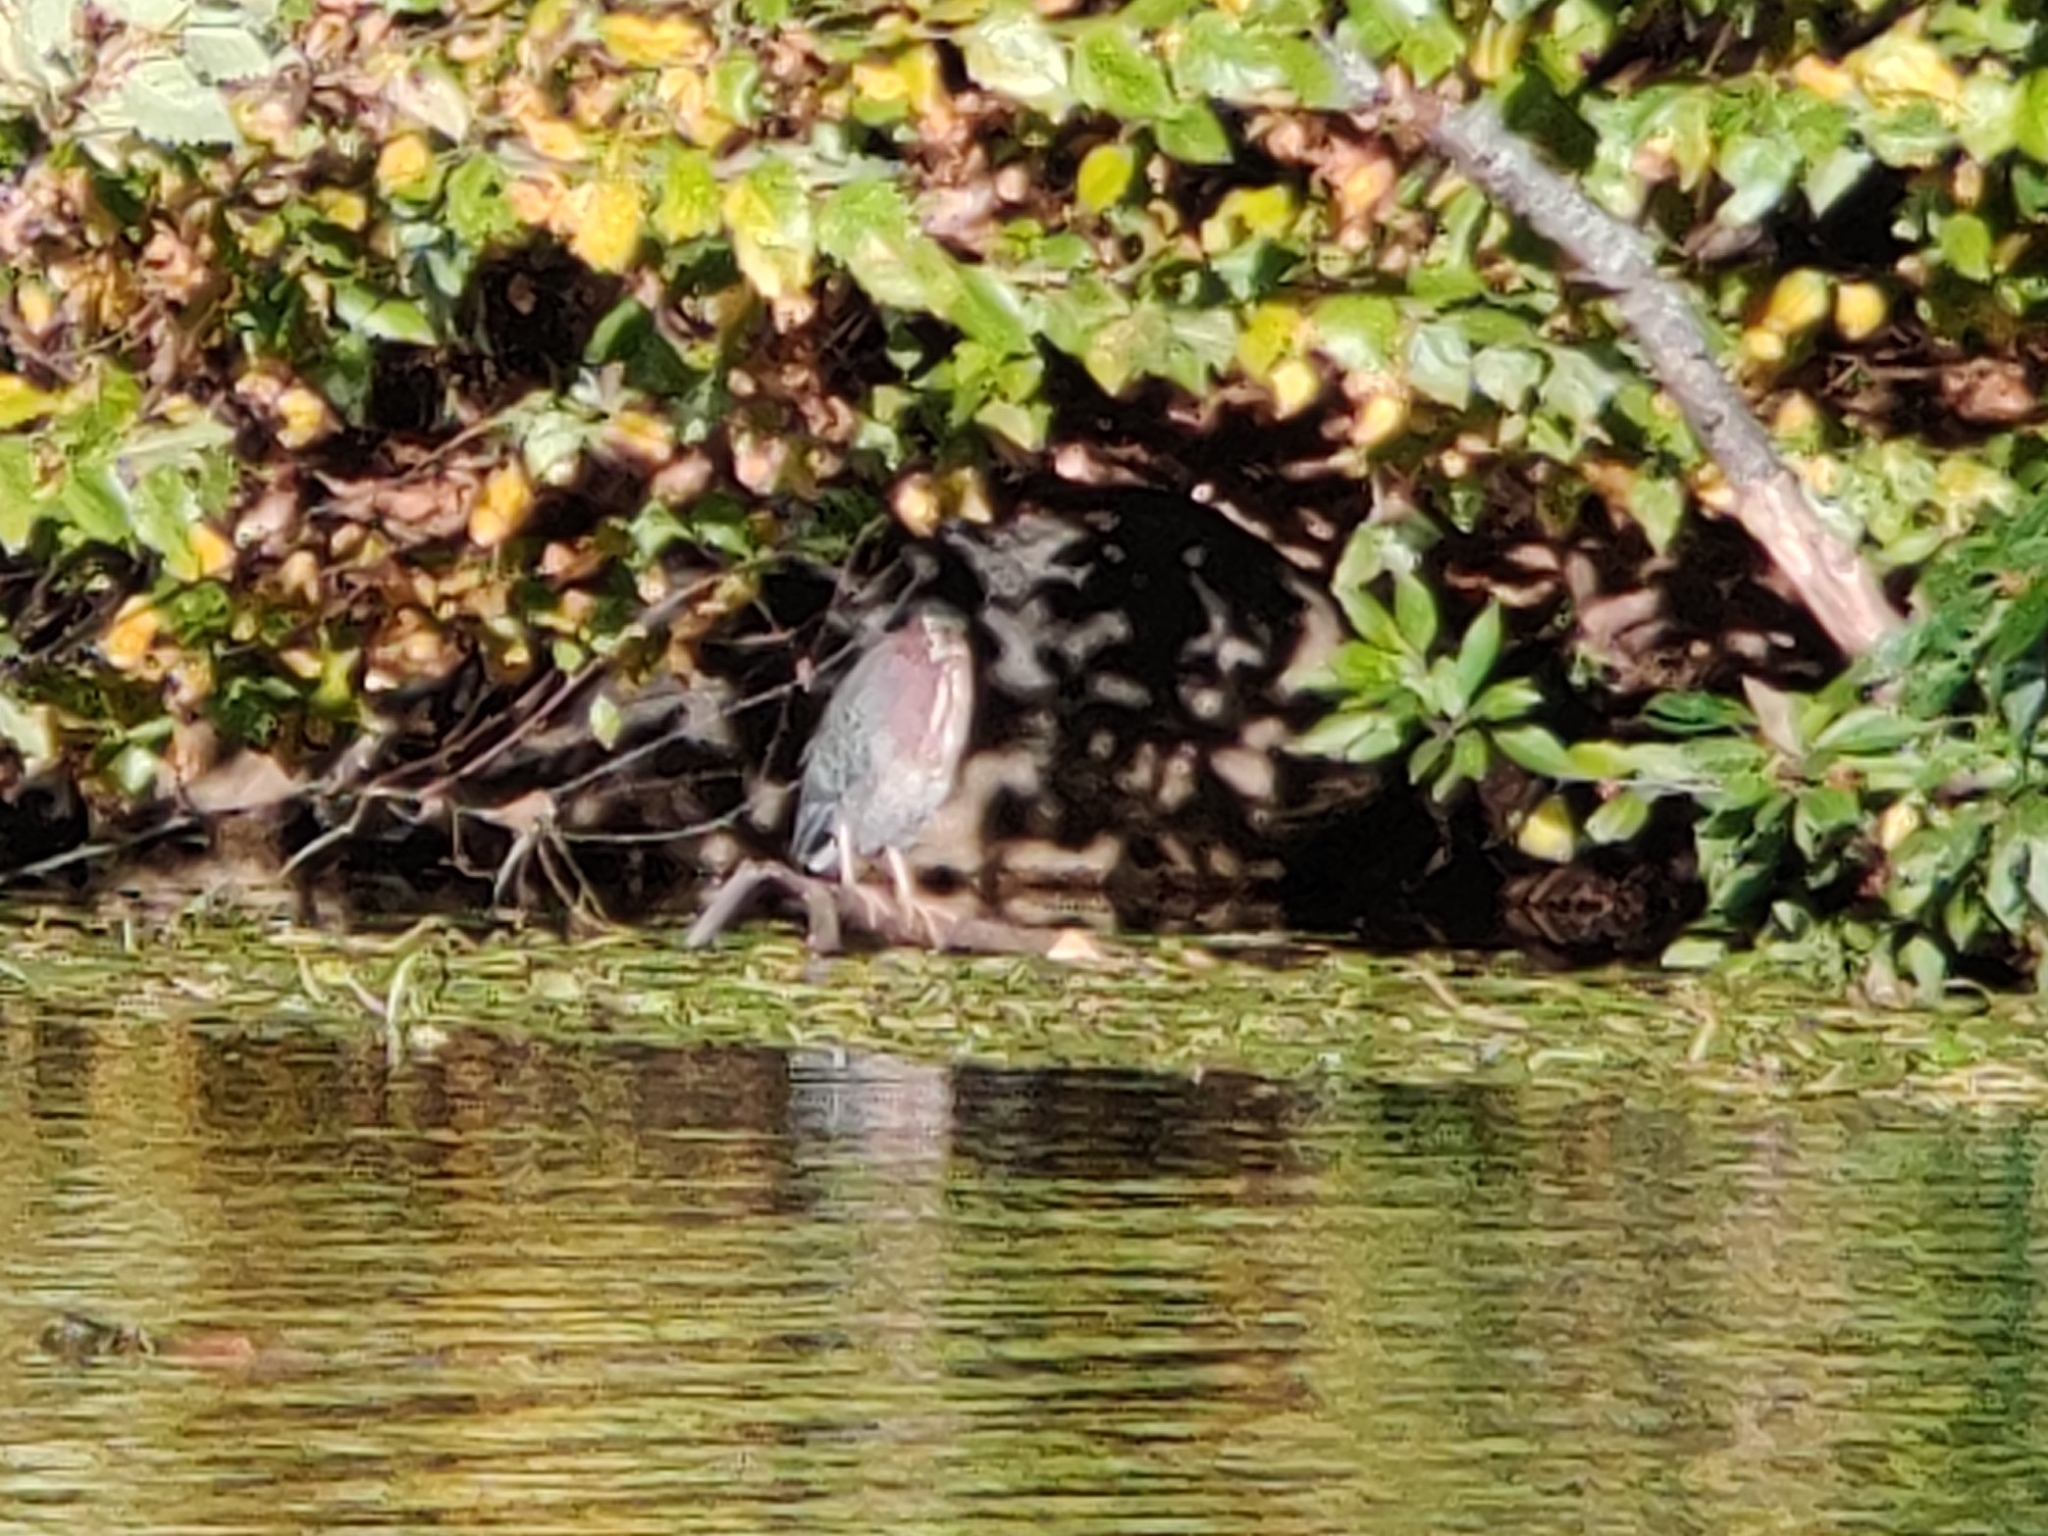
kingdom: Animalia
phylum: Chordata
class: Aves
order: Pelecaniformes
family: Ardeidae
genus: Butorides
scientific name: Butorides virescens
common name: Green heron
